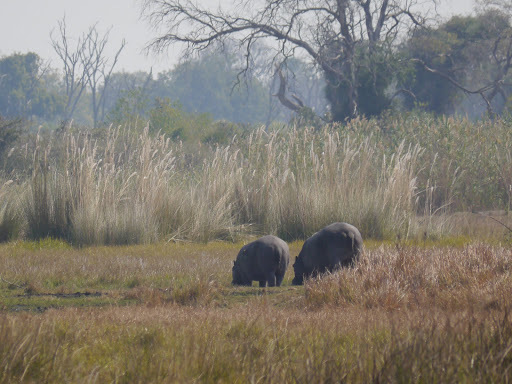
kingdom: Animalia
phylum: Chordata
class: Mammalia
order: Artiodactyla
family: Hippopotamidae
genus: Hippopotamus
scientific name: Hippopotamus amphibius
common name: Common hippopotamus
